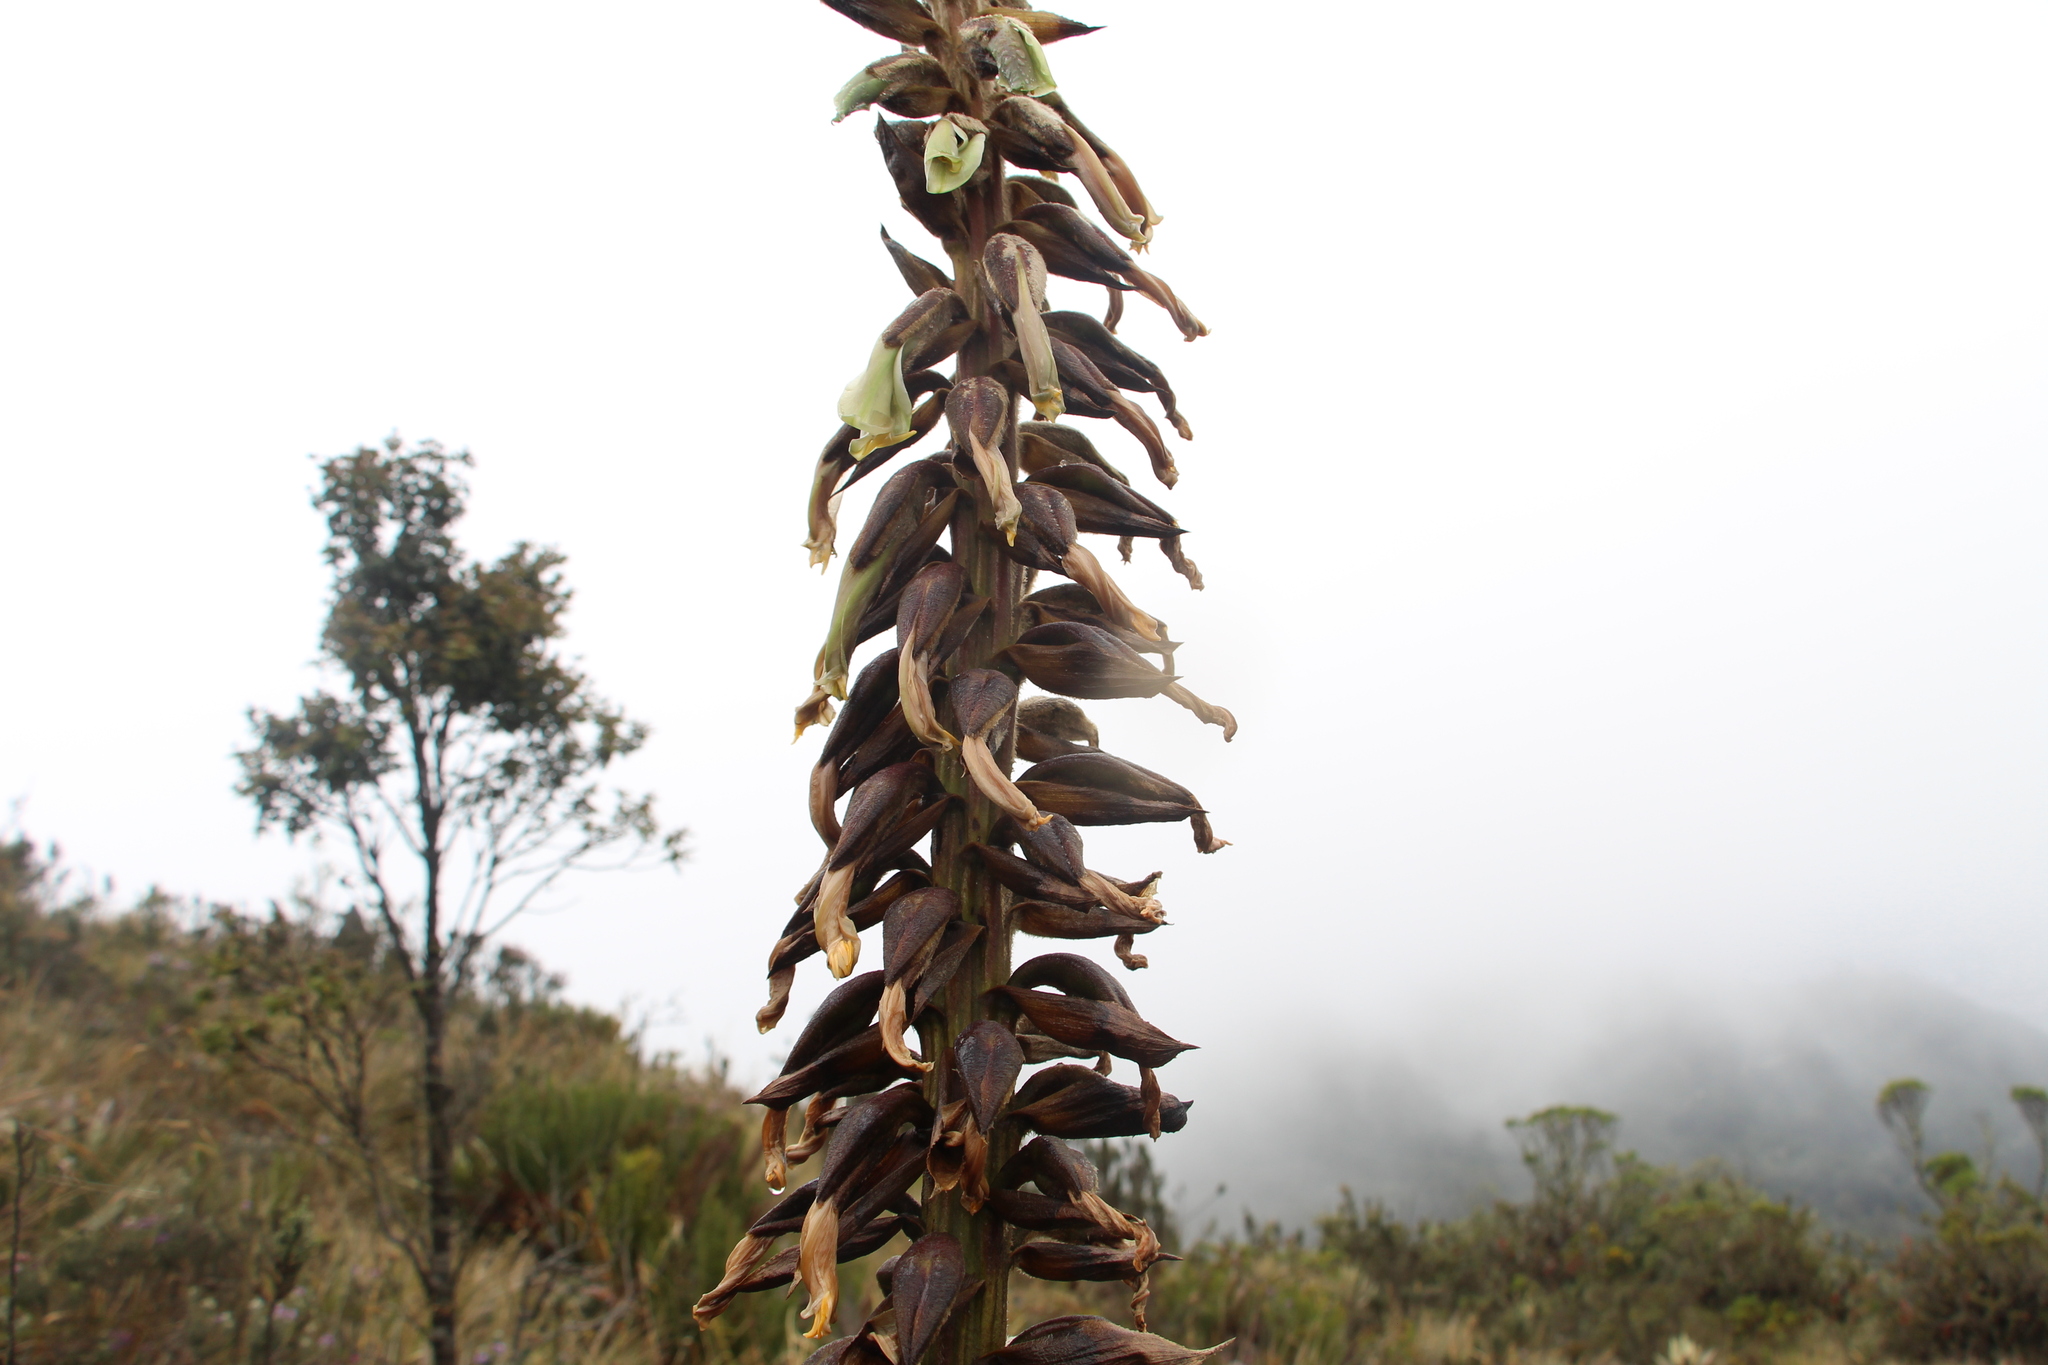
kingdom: Plantae
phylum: Tracheophyta
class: Liliopsida
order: Poales
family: Bromeliaceae
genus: Puya
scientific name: Puya nitida
